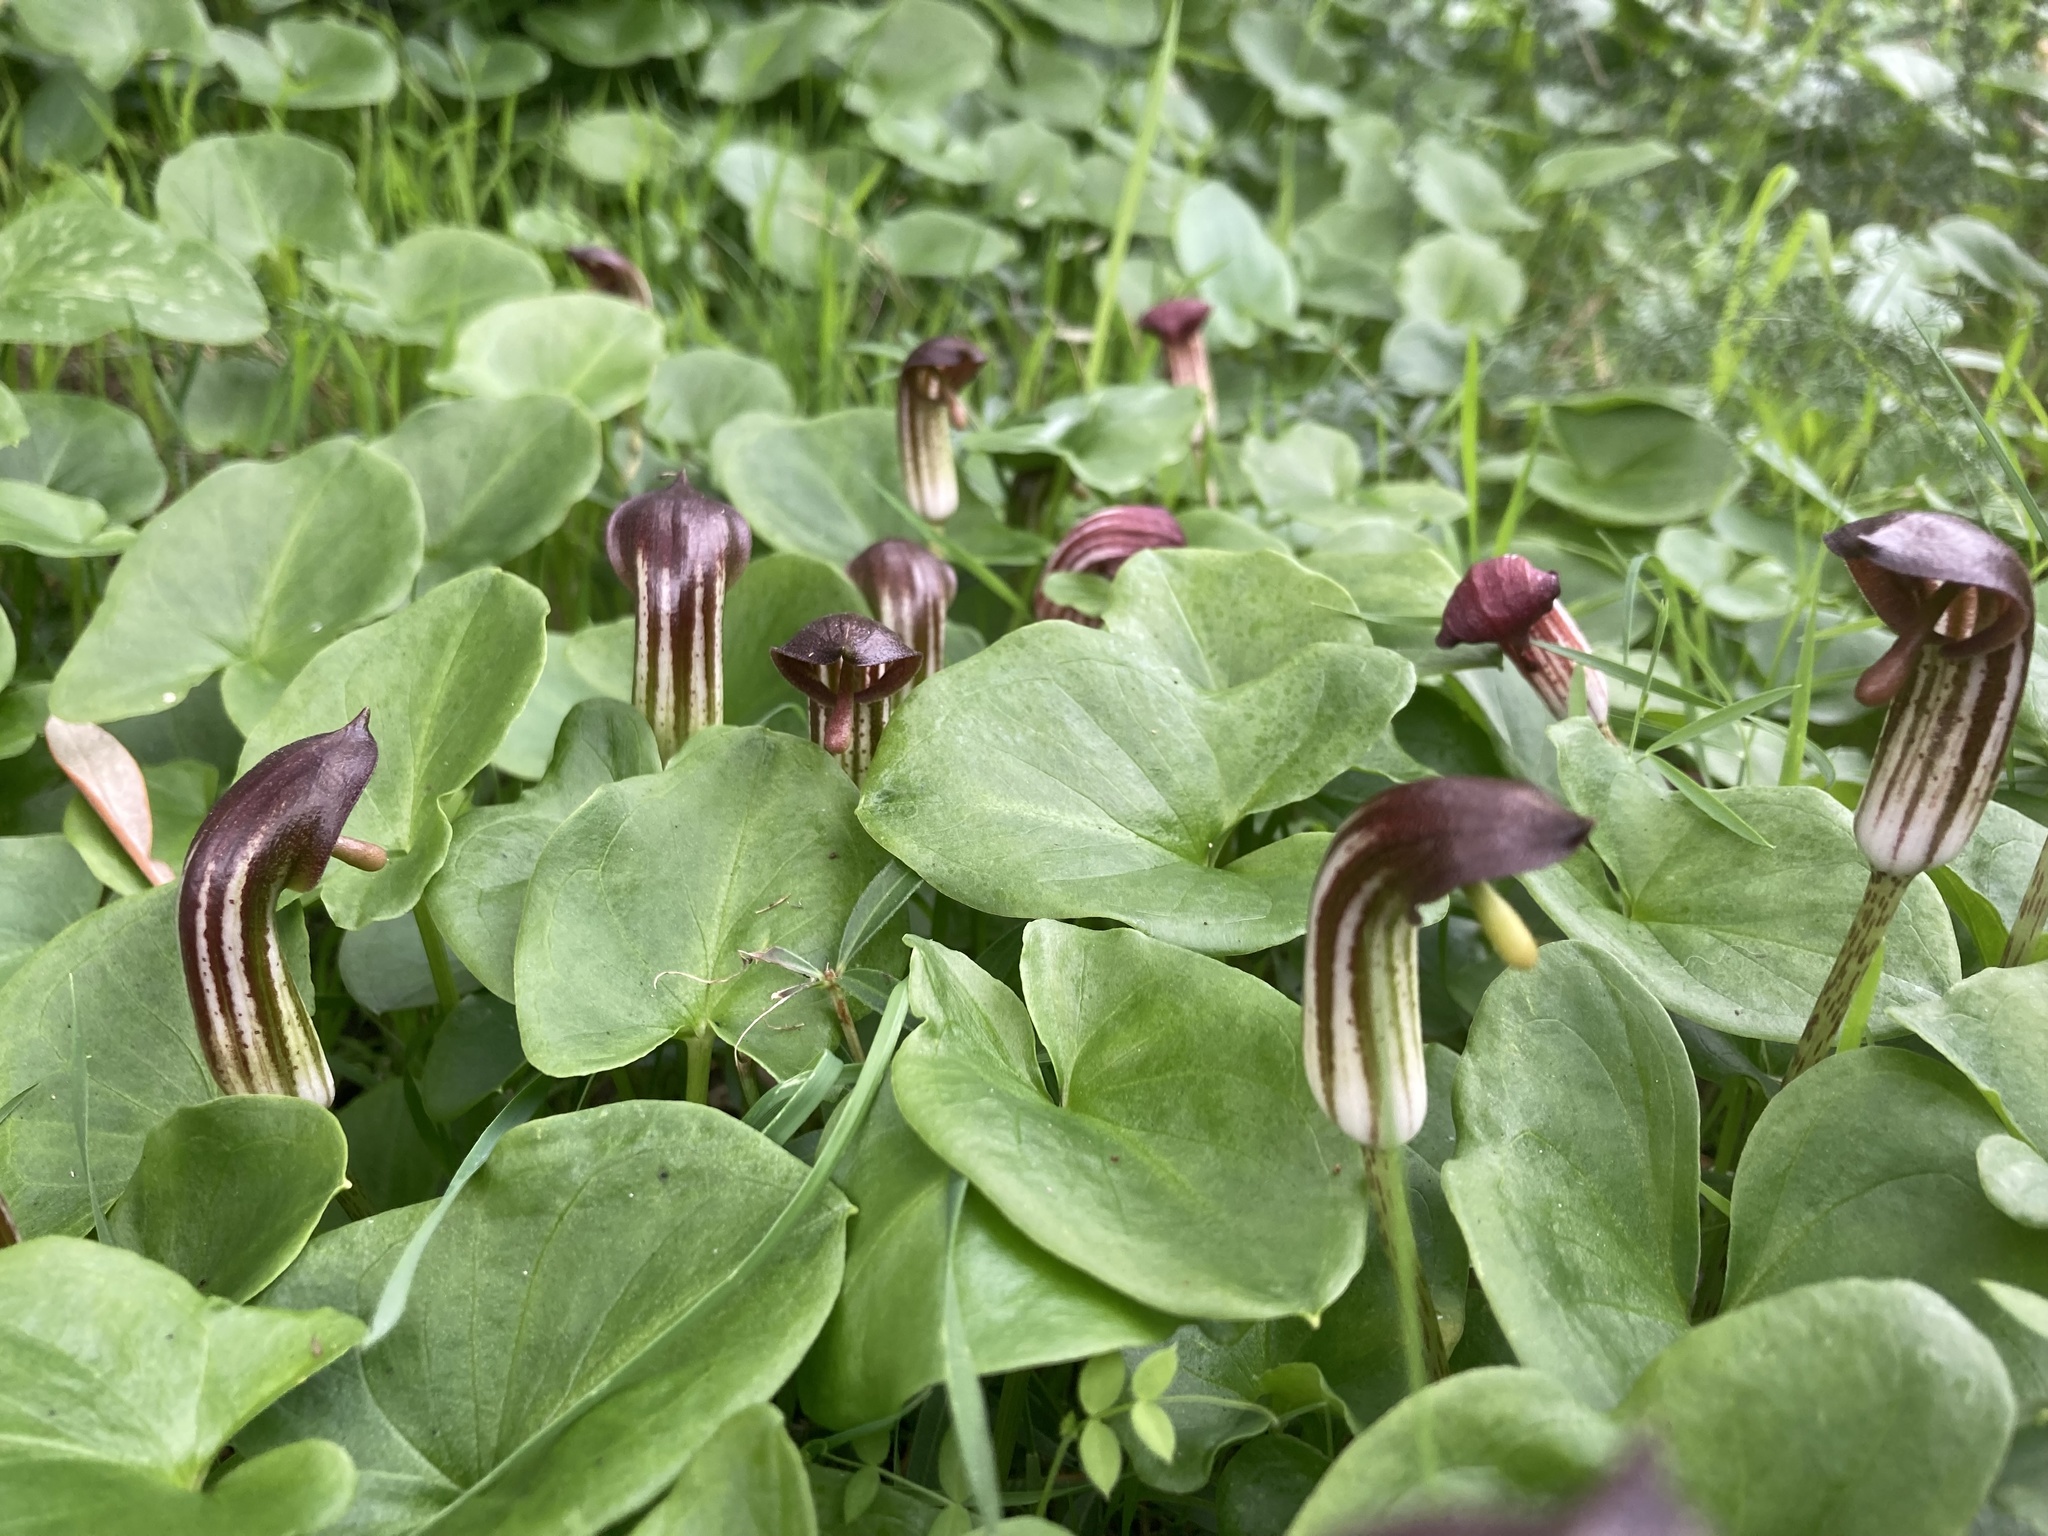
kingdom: Plantae
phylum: Tracheophyta
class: Liliopsida
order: Alismatales
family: Araceae
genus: Arisarum
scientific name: Arisarum vulgare
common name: Common arisarum
